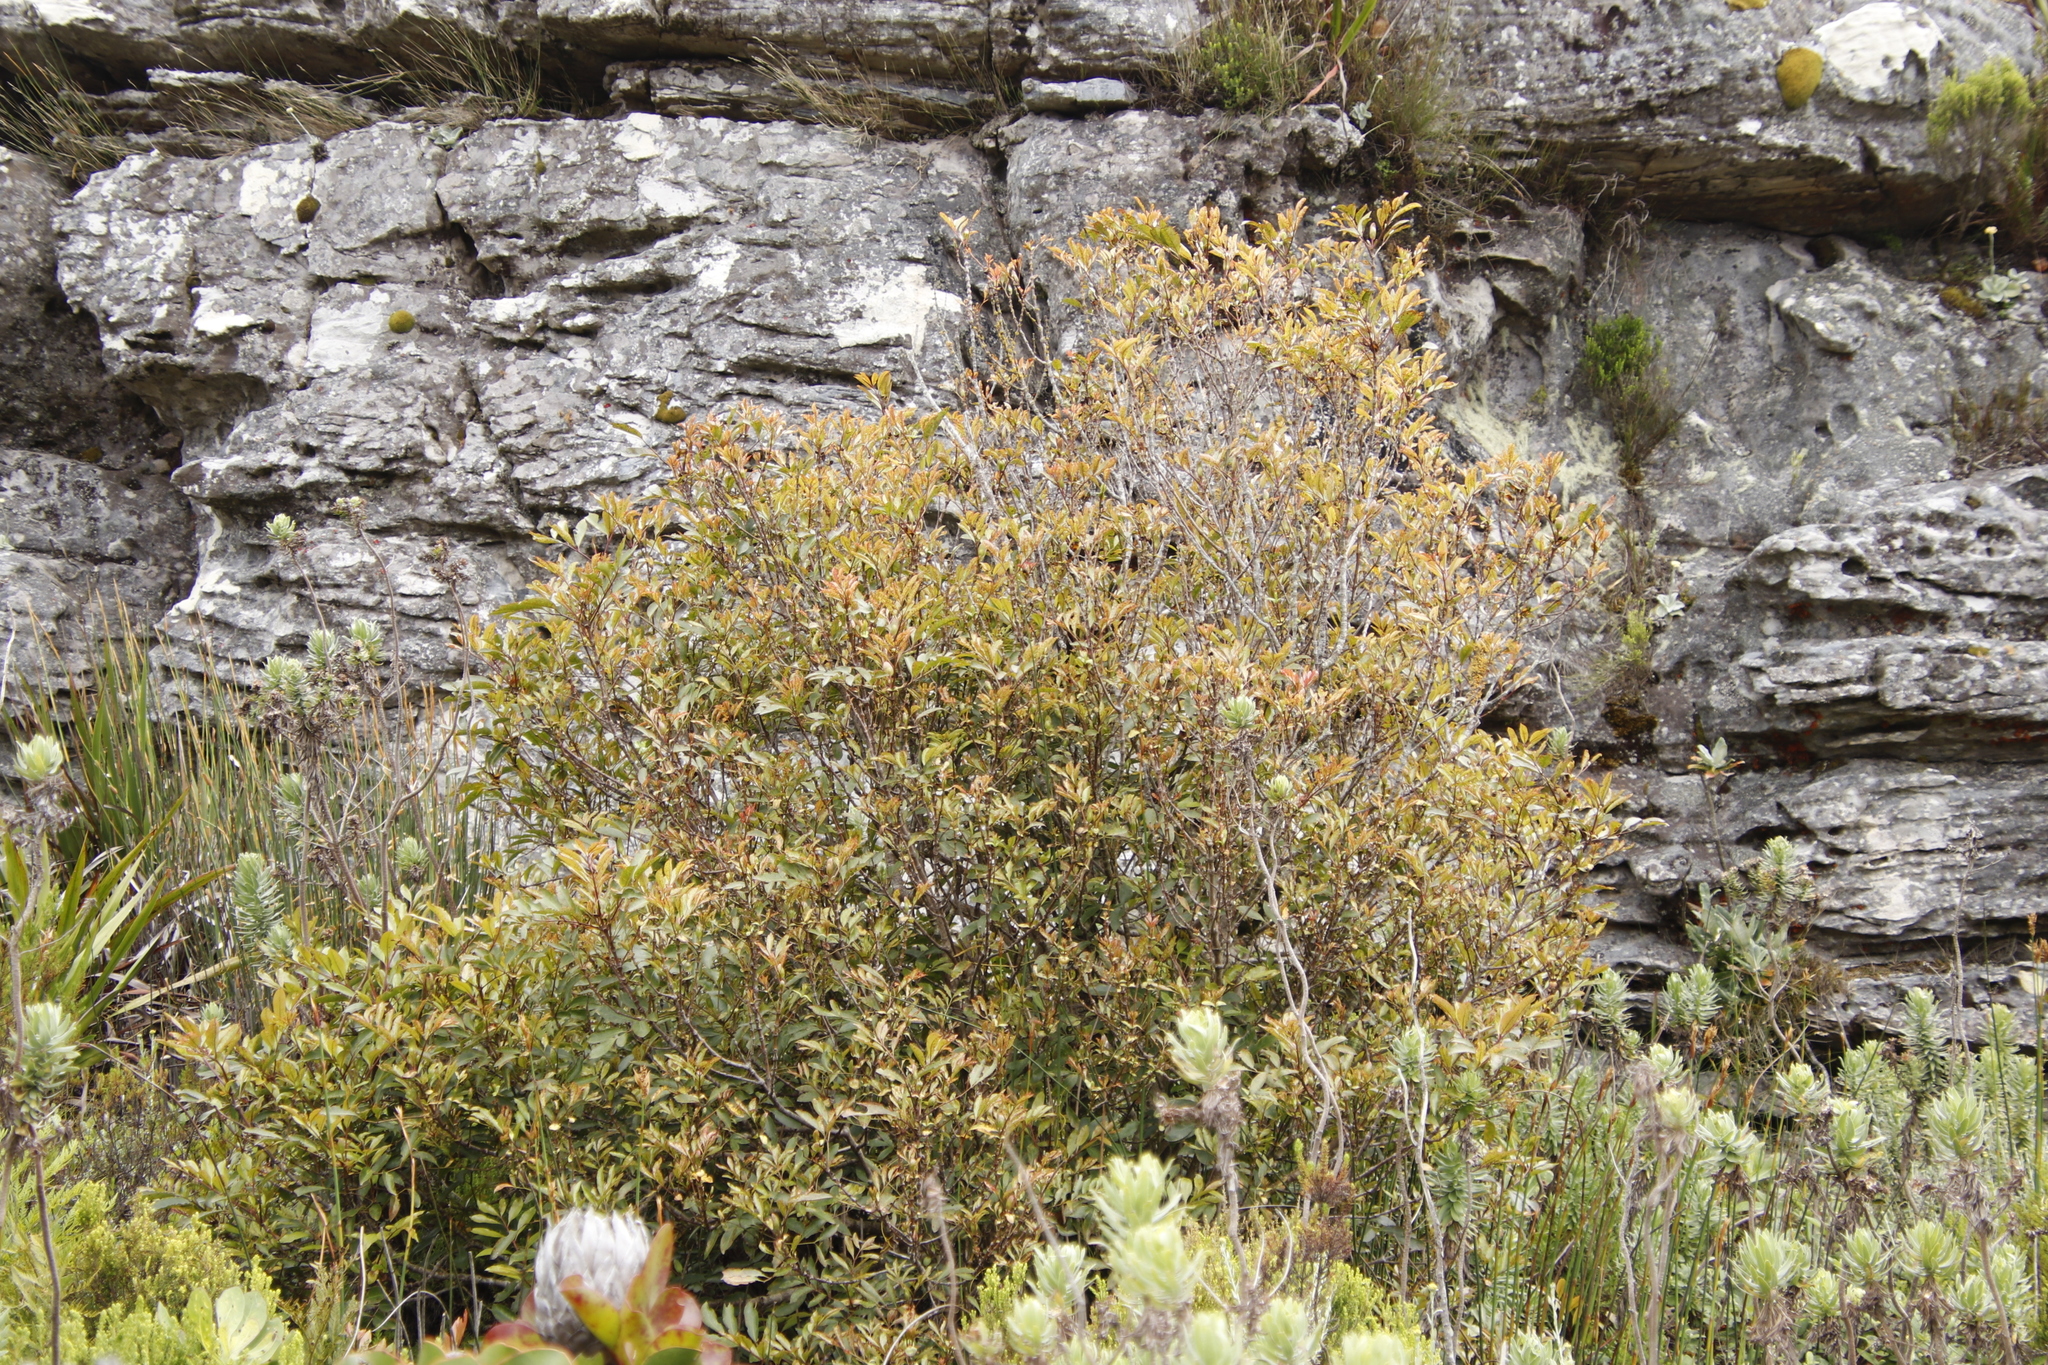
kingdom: Plantae
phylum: Tracheophyta
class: Magnoliopsida
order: Oxalidales
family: Cunoniaceae
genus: Cunonia
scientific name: Cunonia capensis
